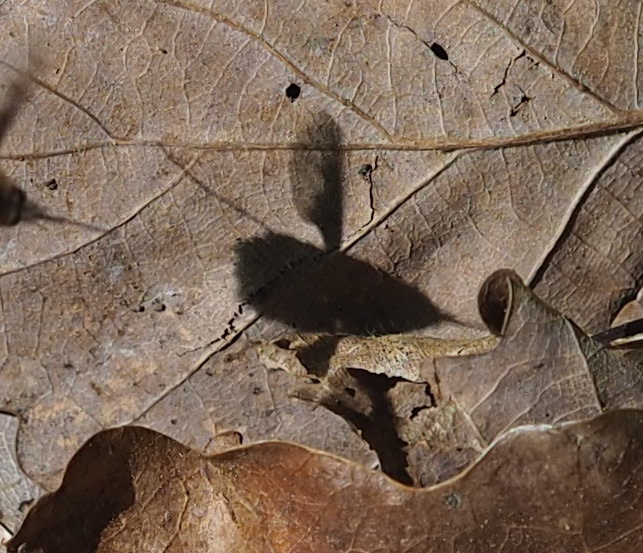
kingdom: Animalia
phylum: Arthropoda
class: Insecta
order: Diptera
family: Bombyliidae
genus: Bombylius
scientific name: Bombylius major
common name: Bee fly
